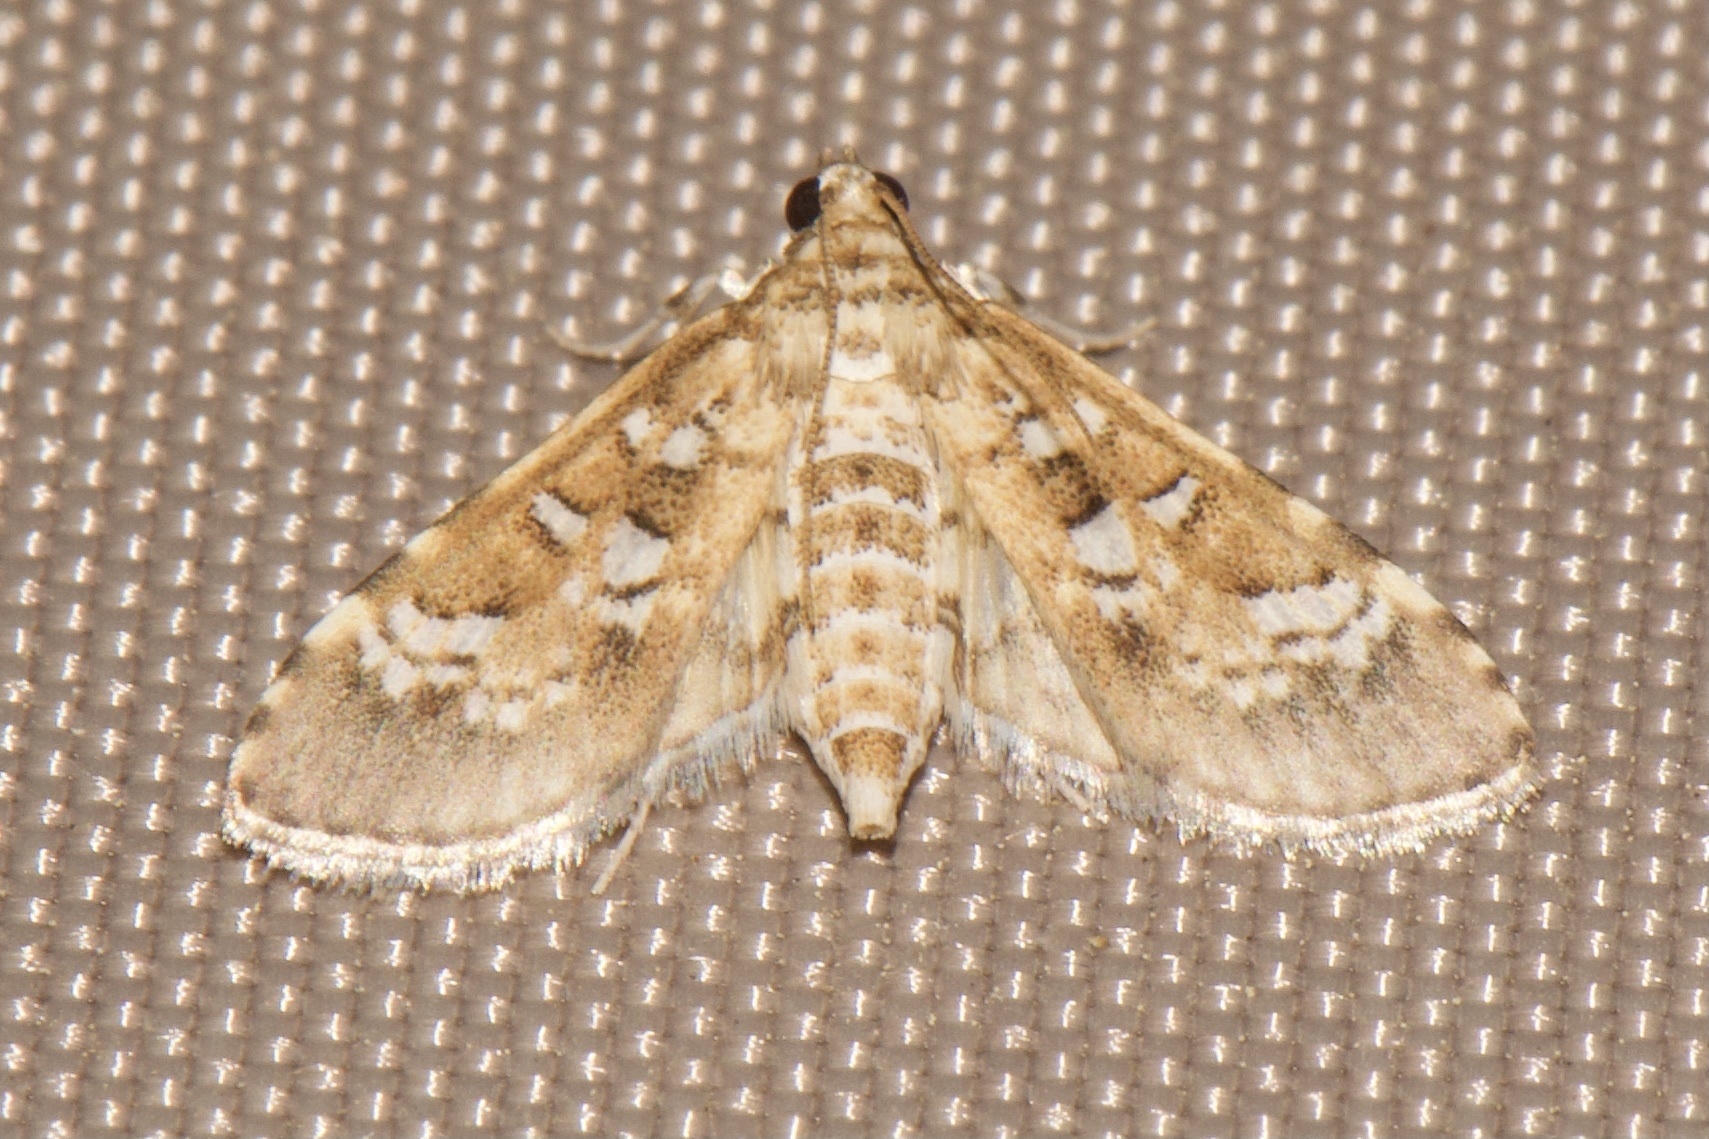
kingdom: Animalia
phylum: Arthropoda
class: Insecta
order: Lepidoptera
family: Crambidae
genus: Samea
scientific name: Samea multiplicalis
